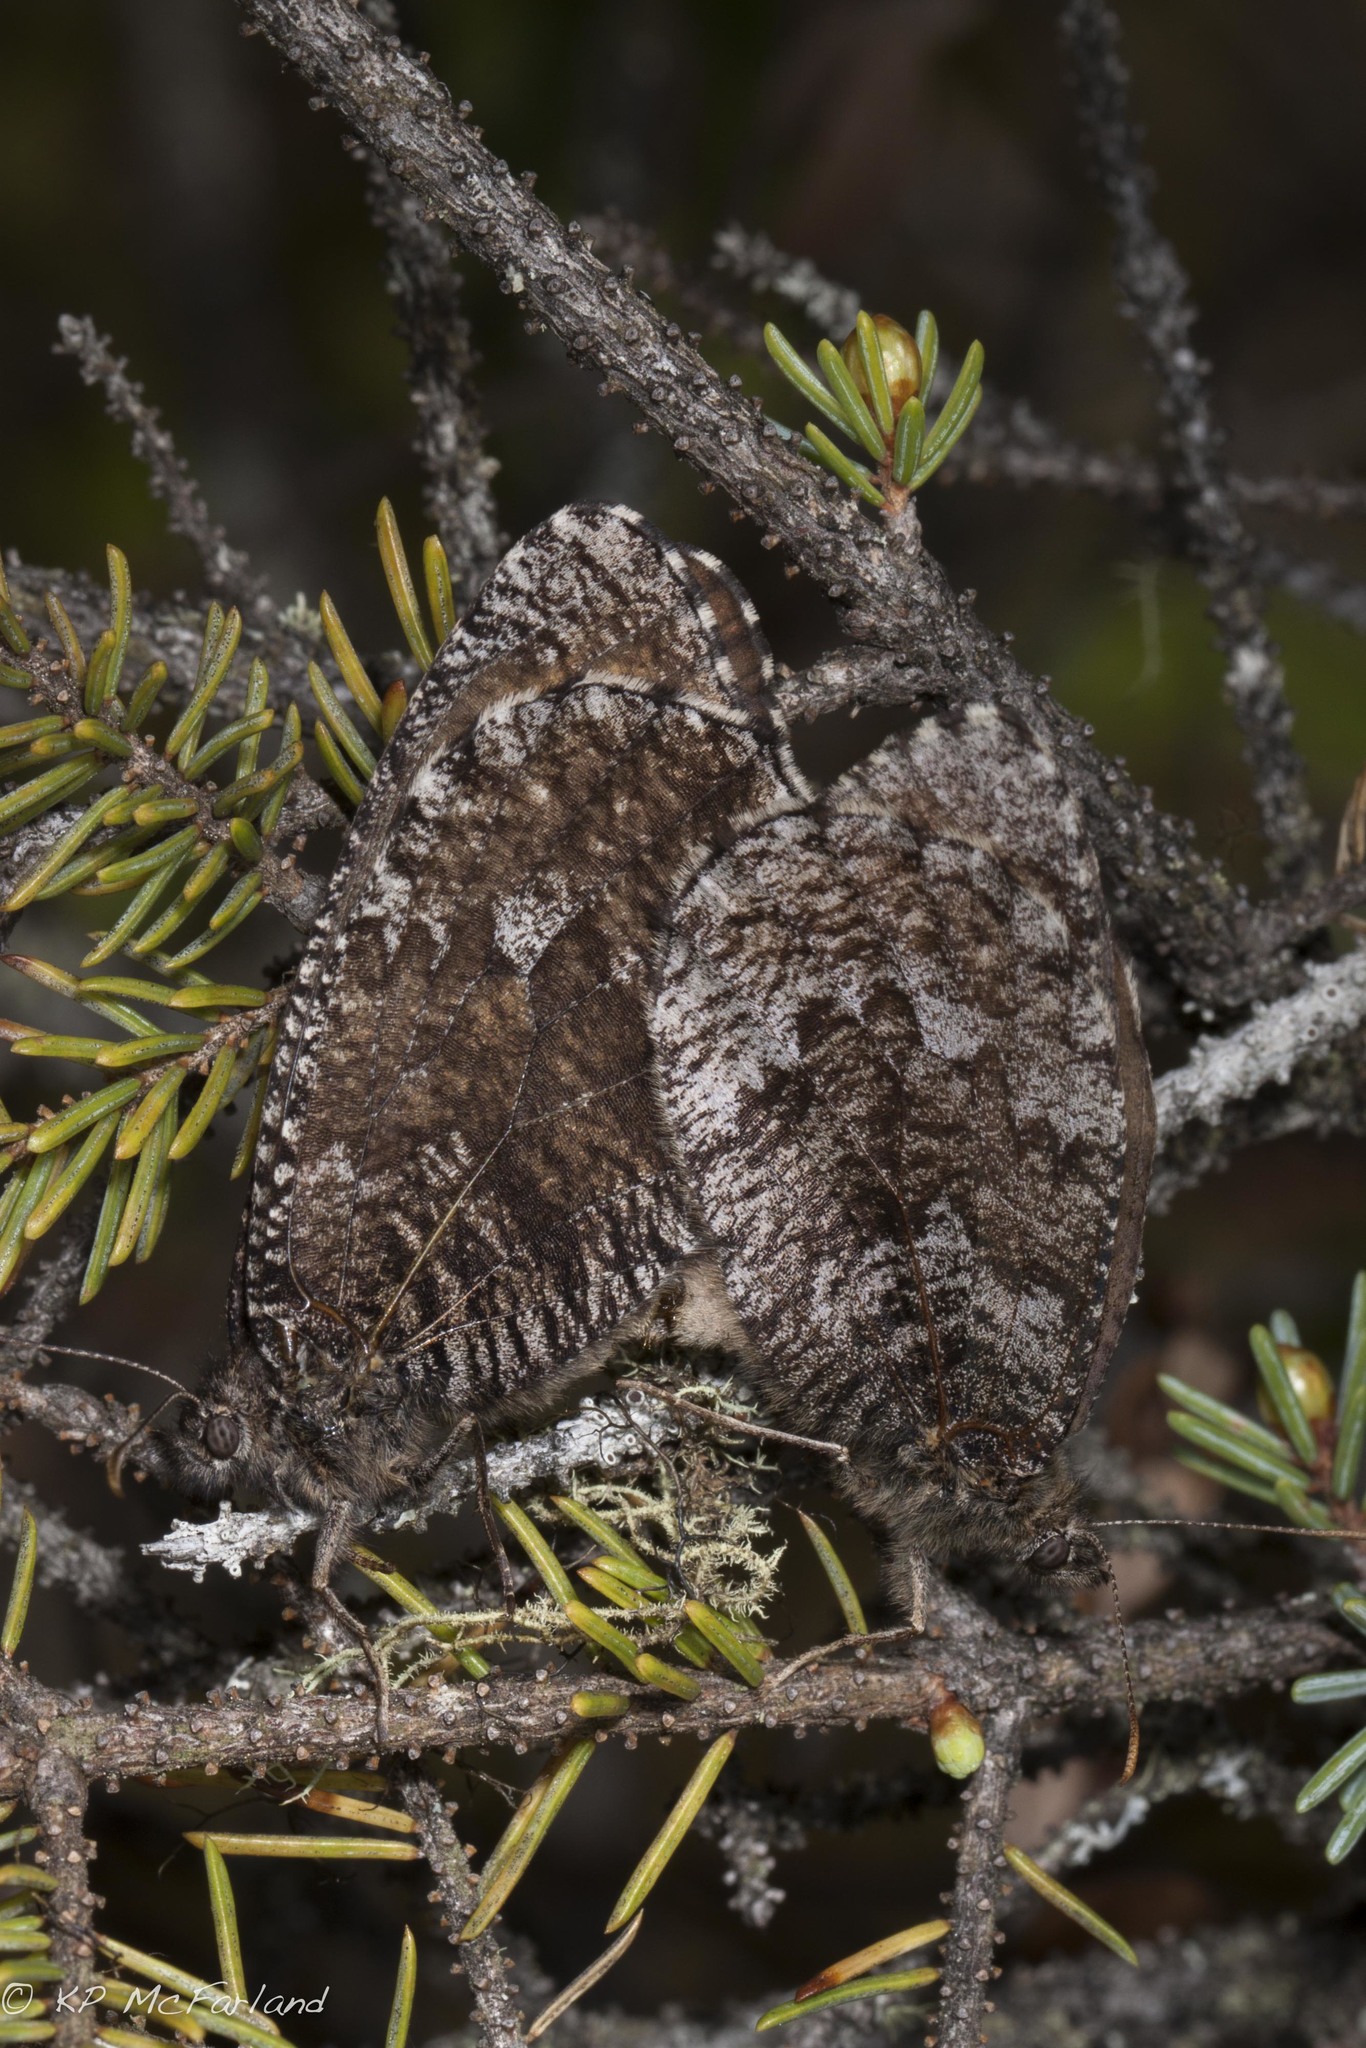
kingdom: Animalia
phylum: Arthropoda
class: Insecta
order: Lepidoptera
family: Nymphalidae
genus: Oeneis
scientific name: Oeneis jutta
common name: Baltic grayling
